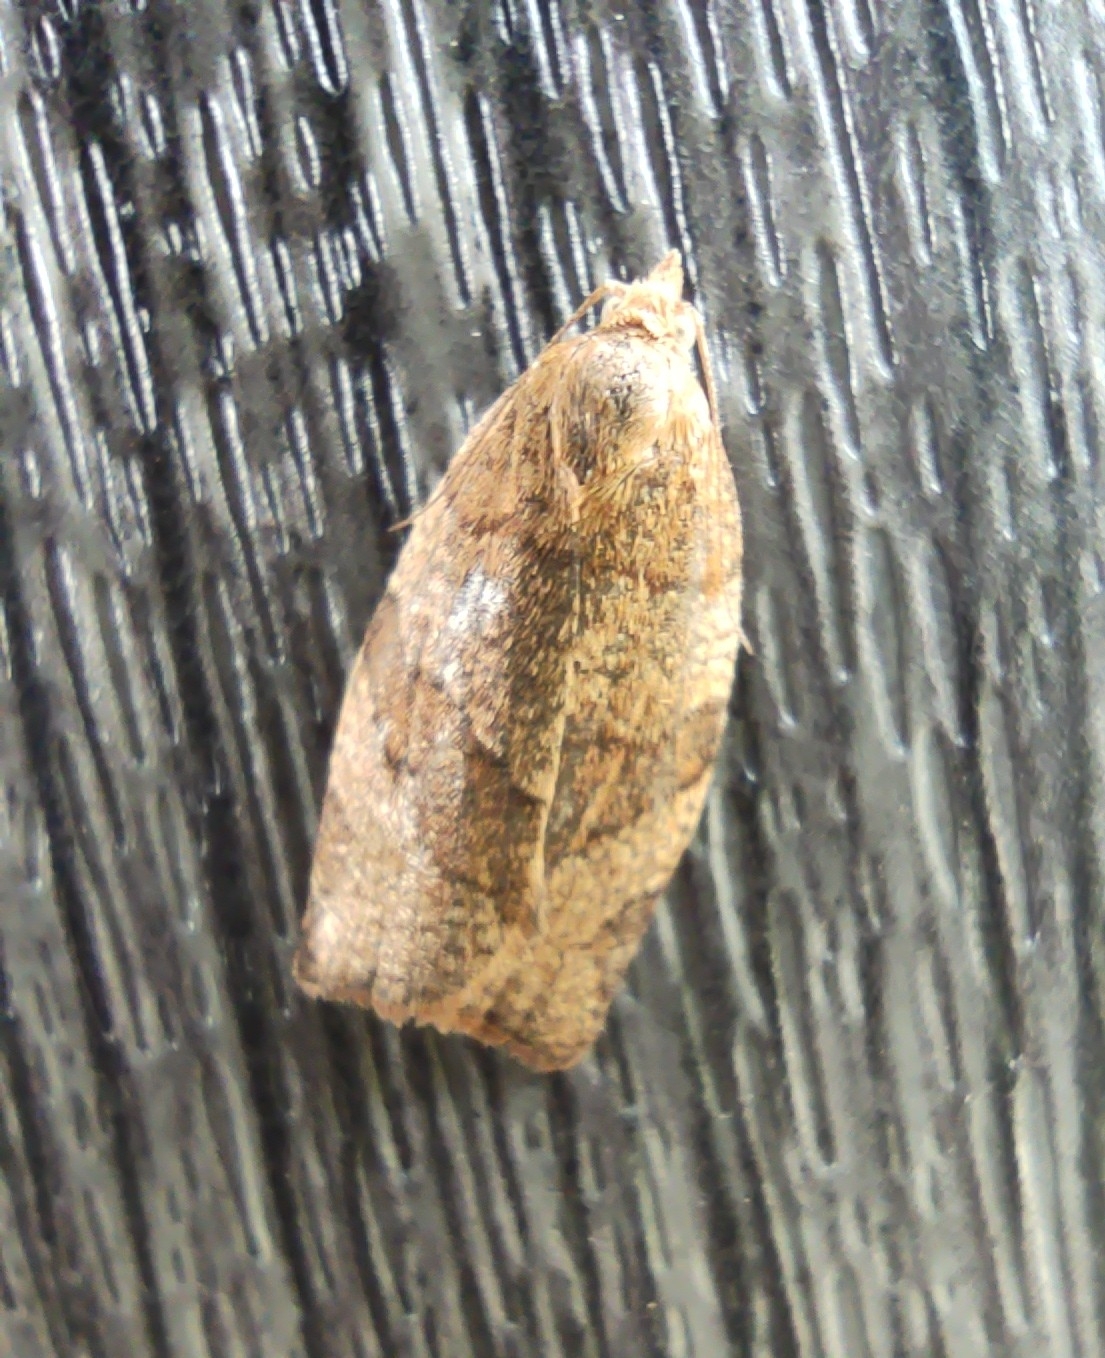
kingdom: Animalia
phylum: Arthropoda
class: Insecta
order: Lepidoptera
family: Tortricidae
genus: Pandemis
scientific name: Pandemis cerasana
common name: Barred fruit-tree tortrix
